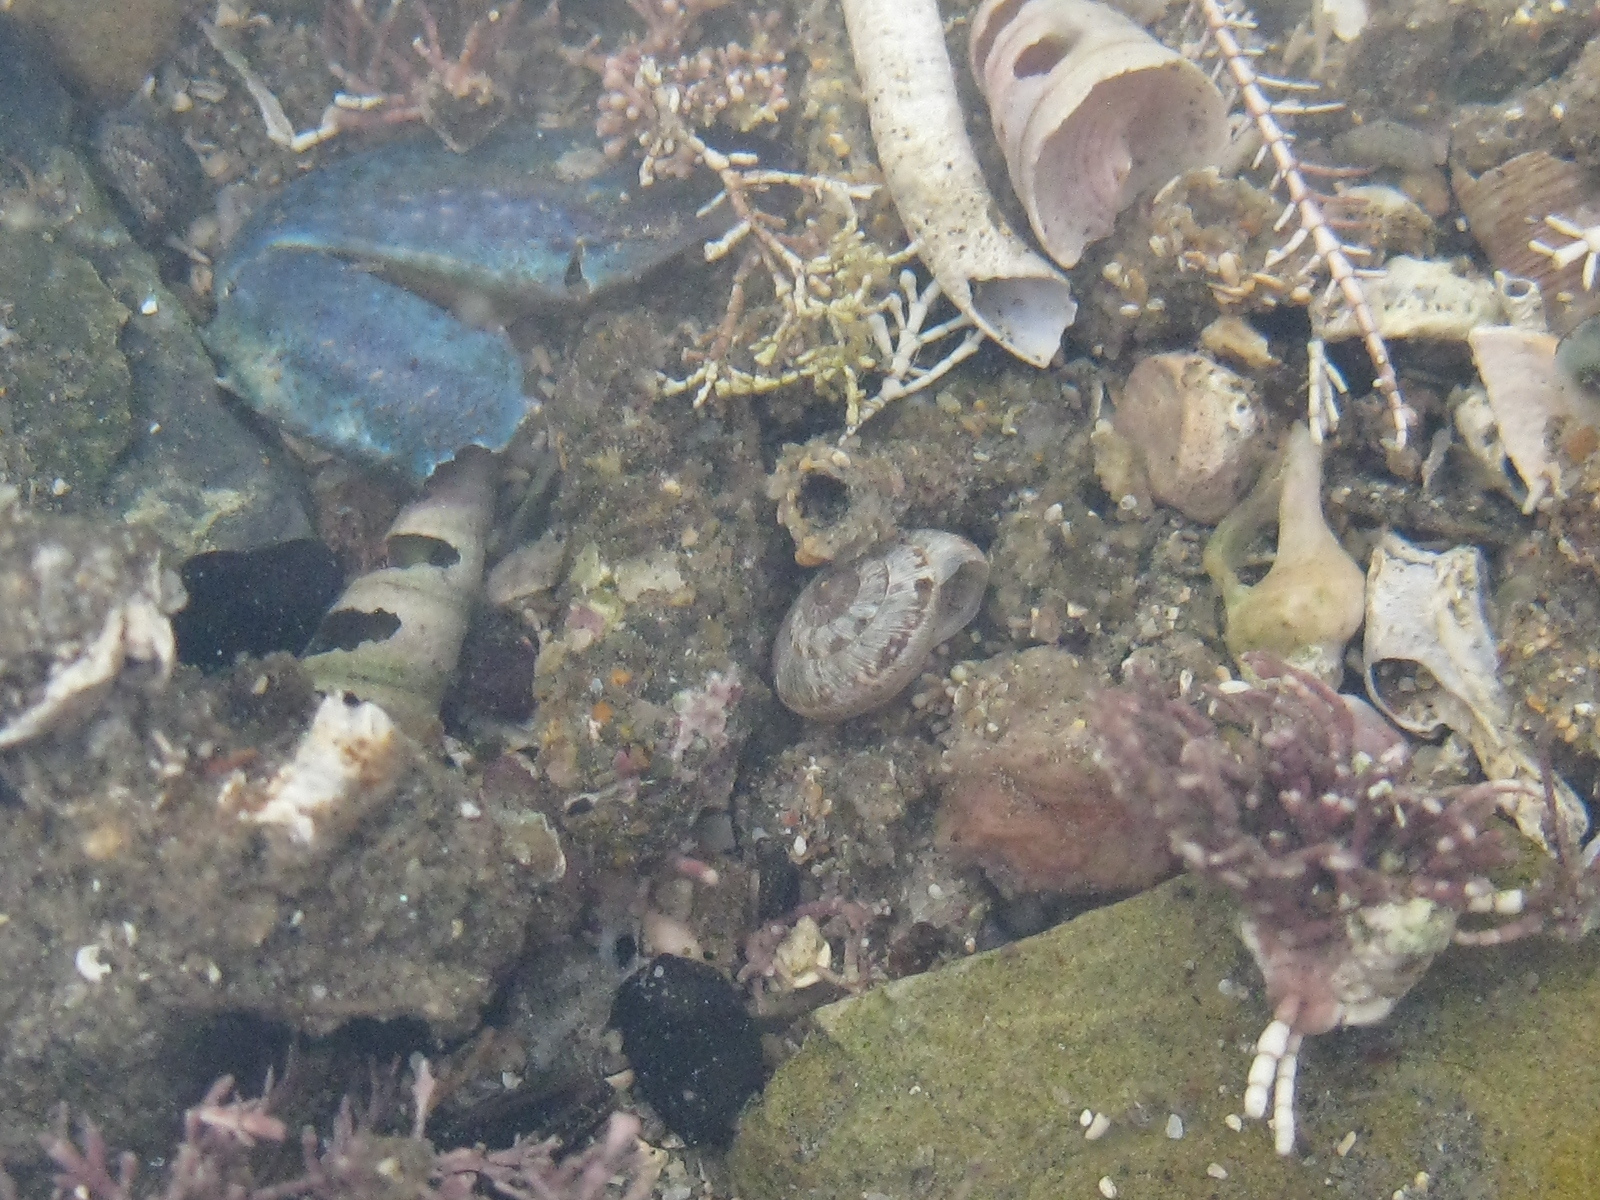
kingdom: Animalia
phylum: Mollusca
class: Gastropoda
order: Stylommatophora
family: Geomitridae
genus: Xeroplexa
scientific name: Xeroplexa intersecta
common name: Wrinkled snail
